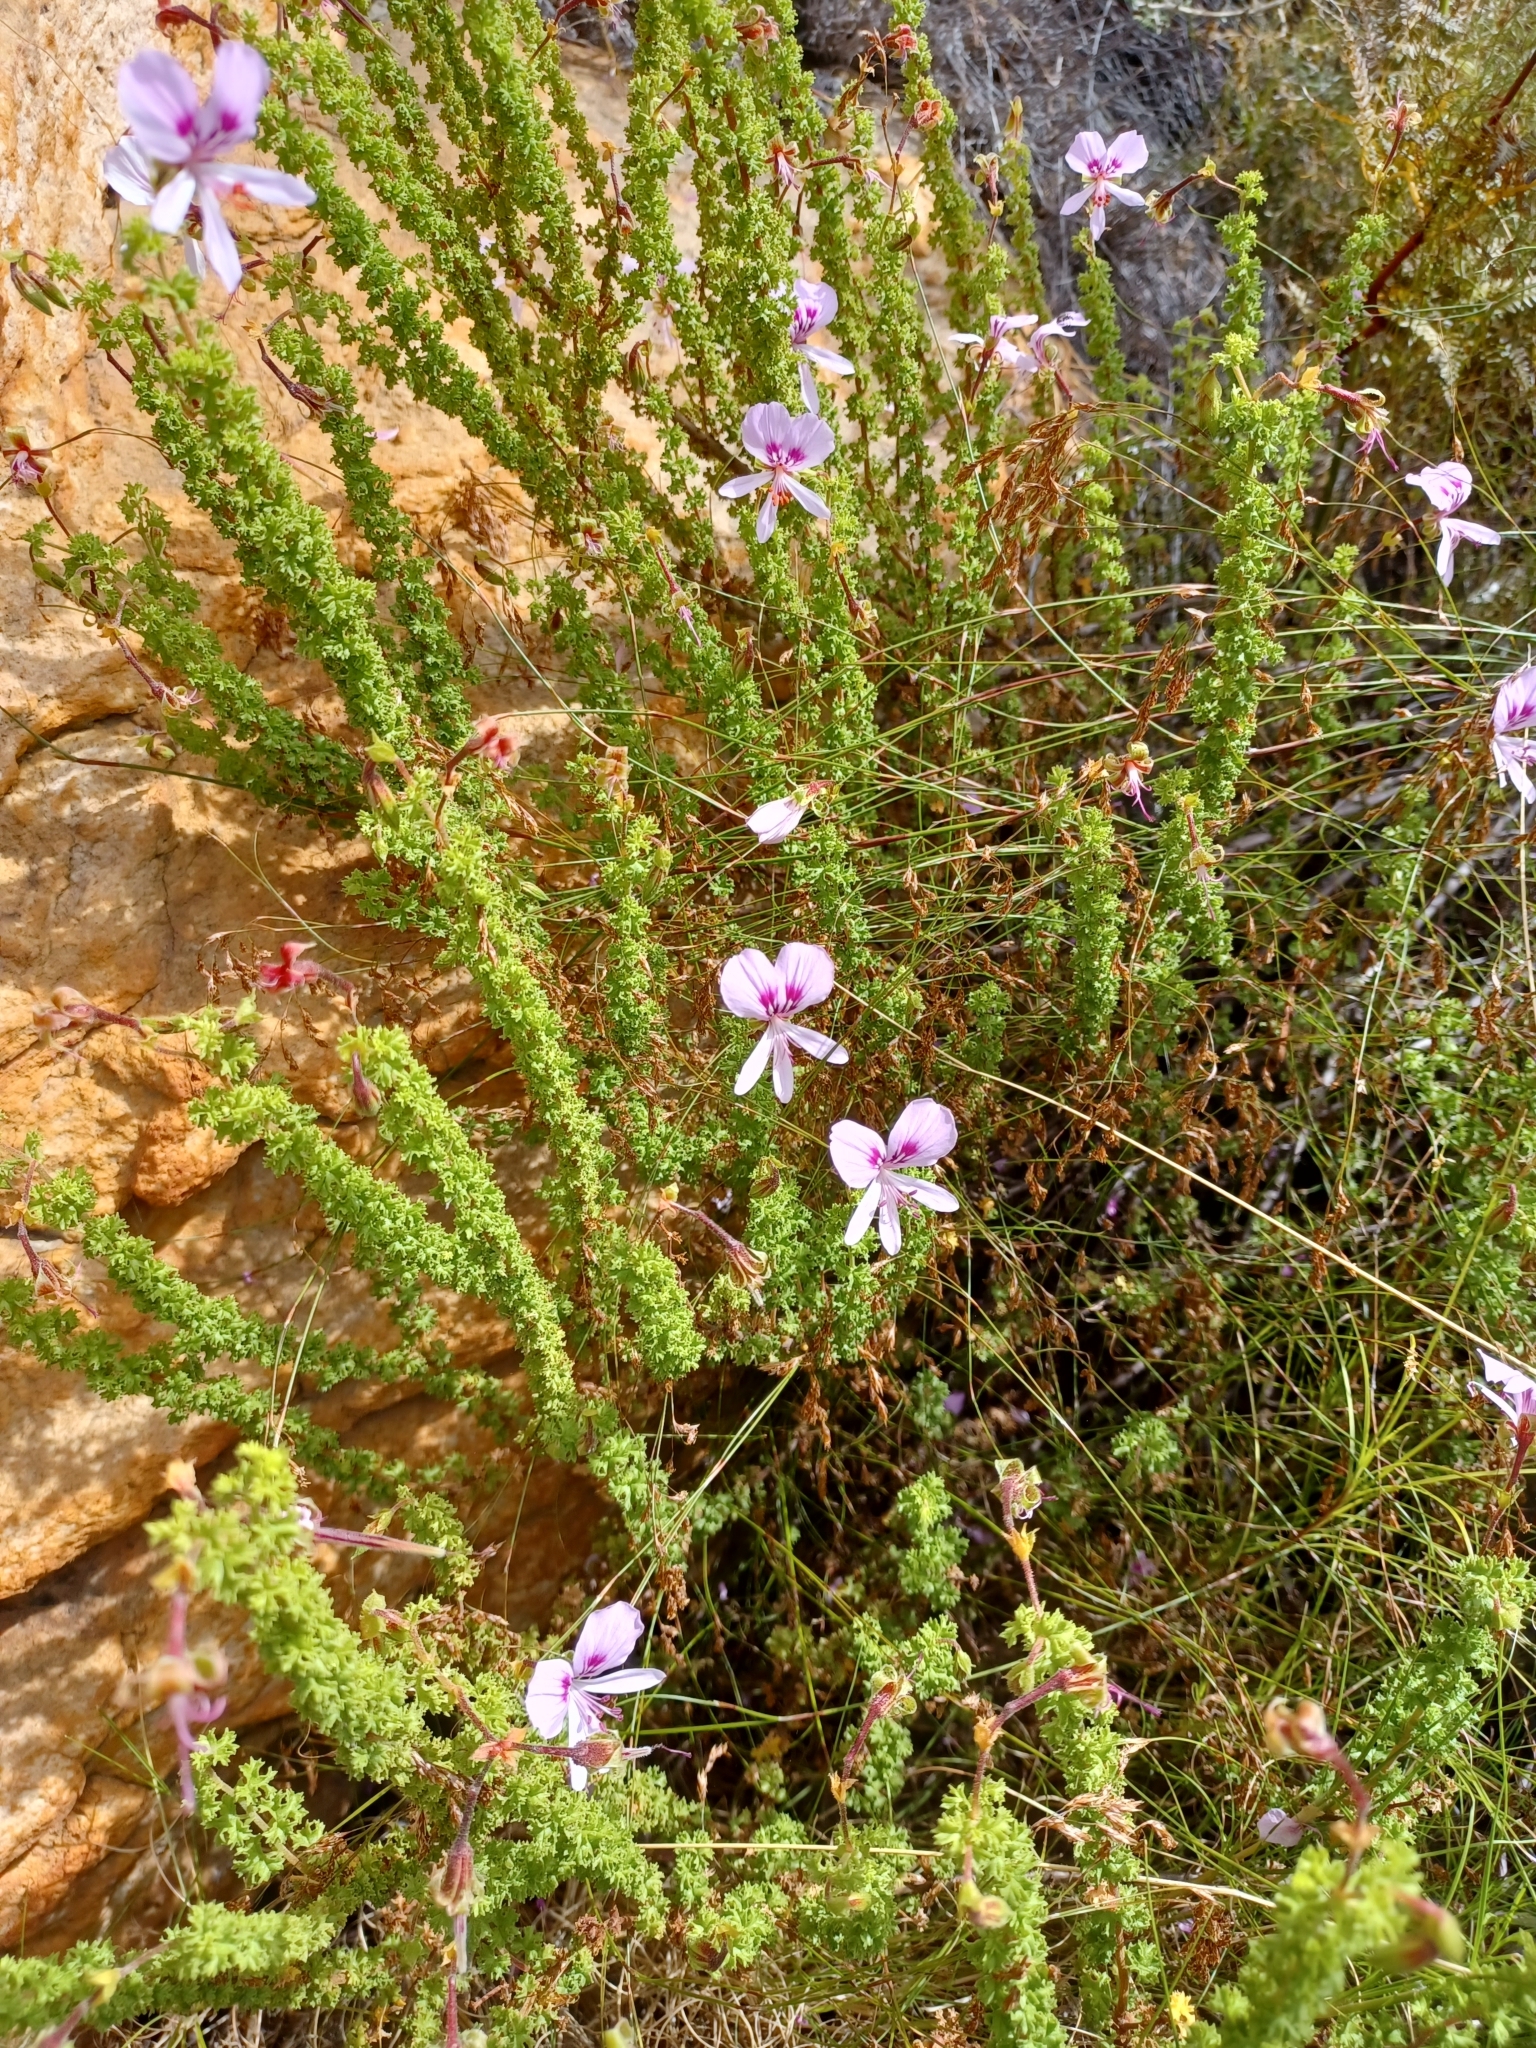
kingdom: Plantae
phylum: Tracheophyta
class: Magnoliopsida
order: Geraniales
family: Geraniaceae
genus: Pelargonium
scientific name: Pelargonium crispum
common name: Crisped-leaf pelargonium
